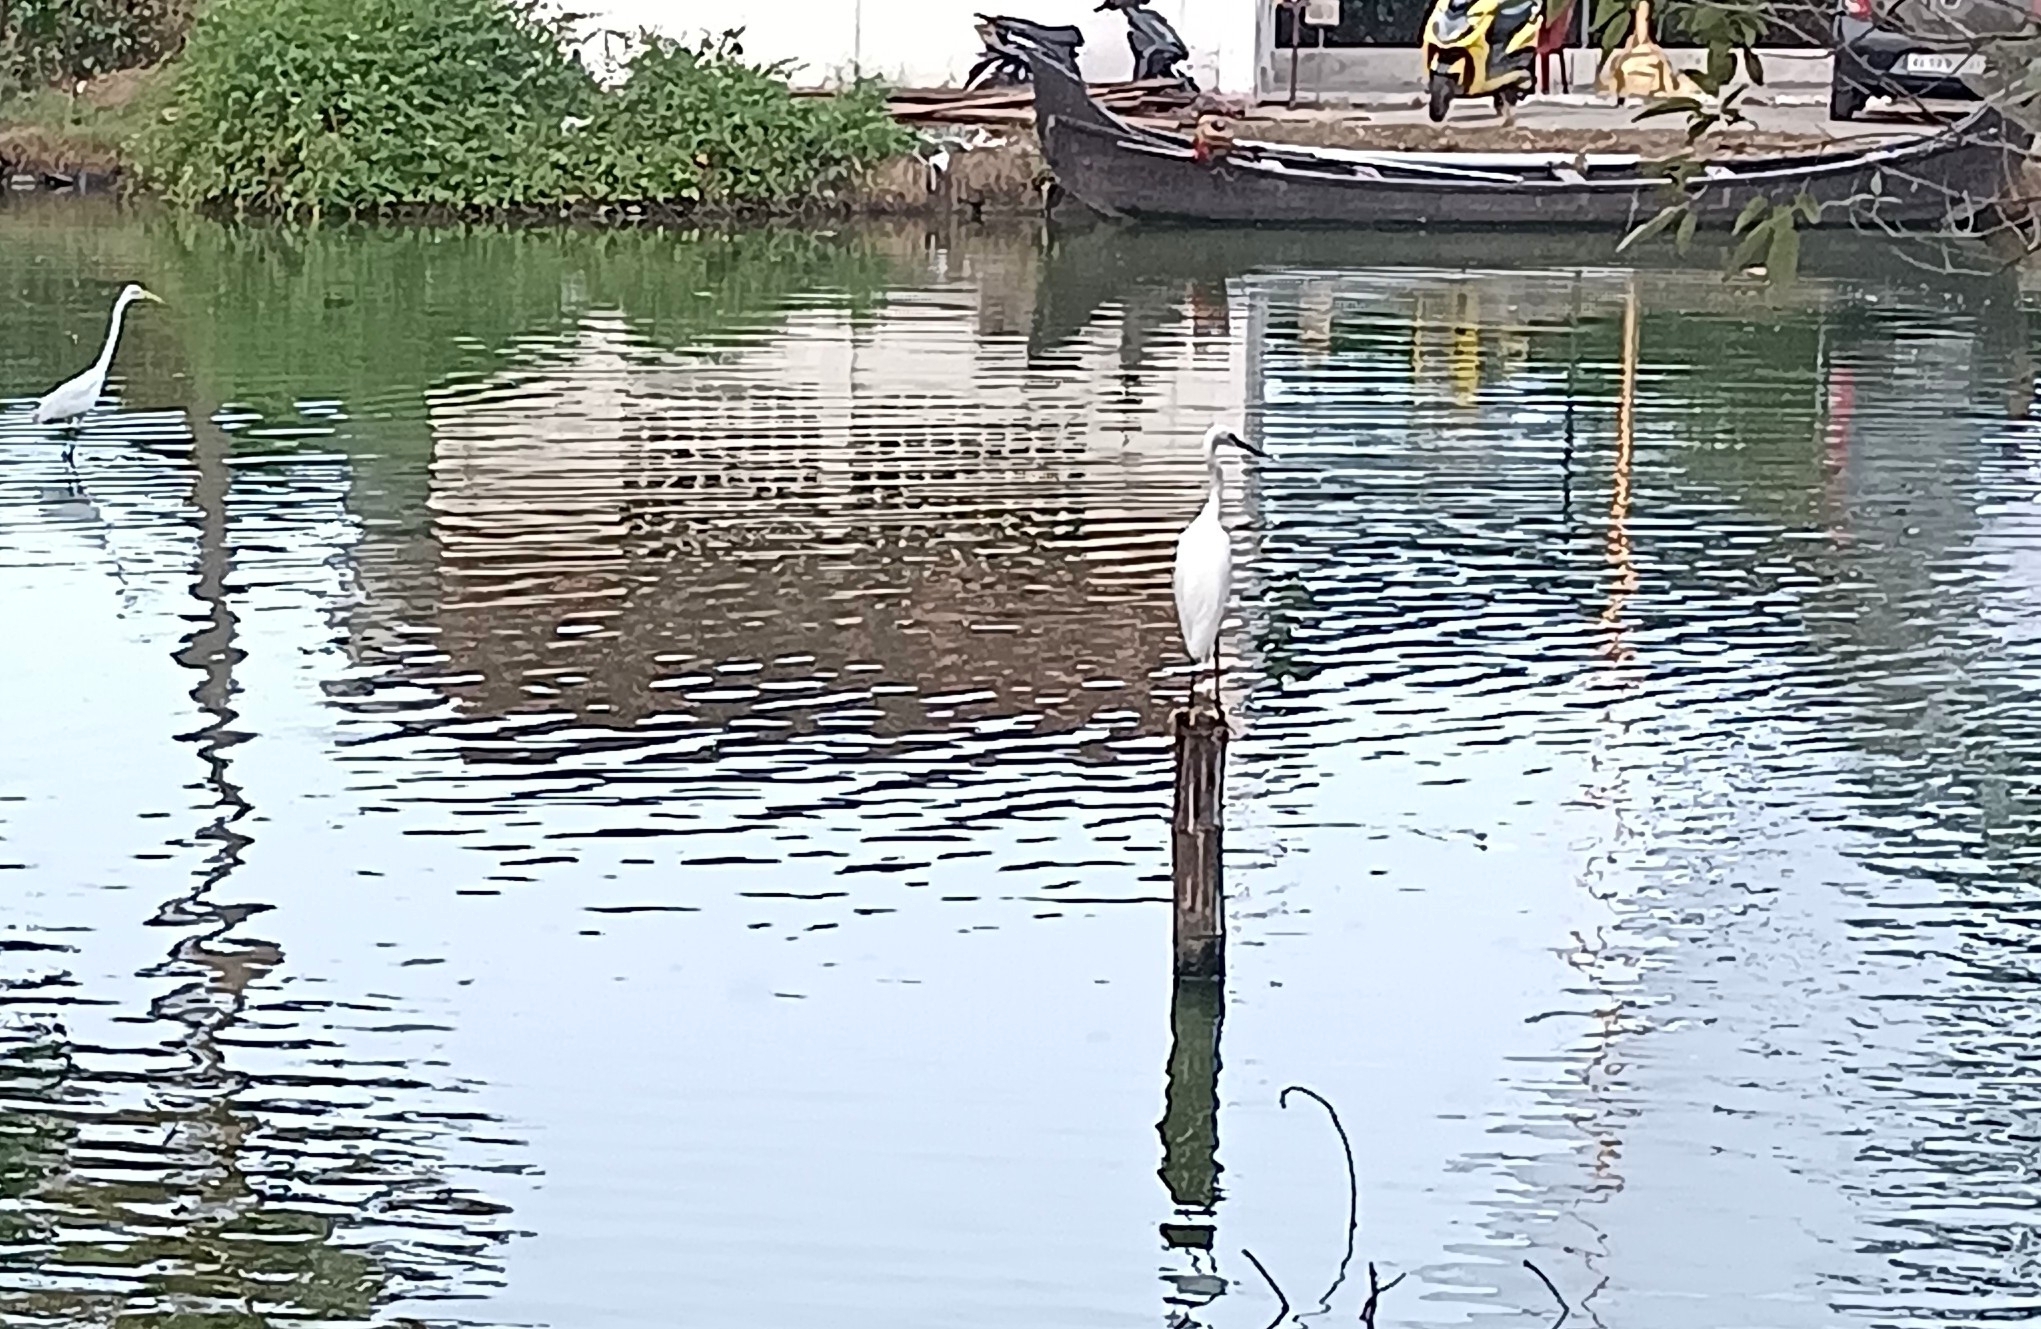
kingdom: Animalia
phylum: Chordata
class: Aves
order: Pelecaniformes
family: Ardeidae
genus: Egretta
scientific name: Egretta garzetta
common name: Little egret
